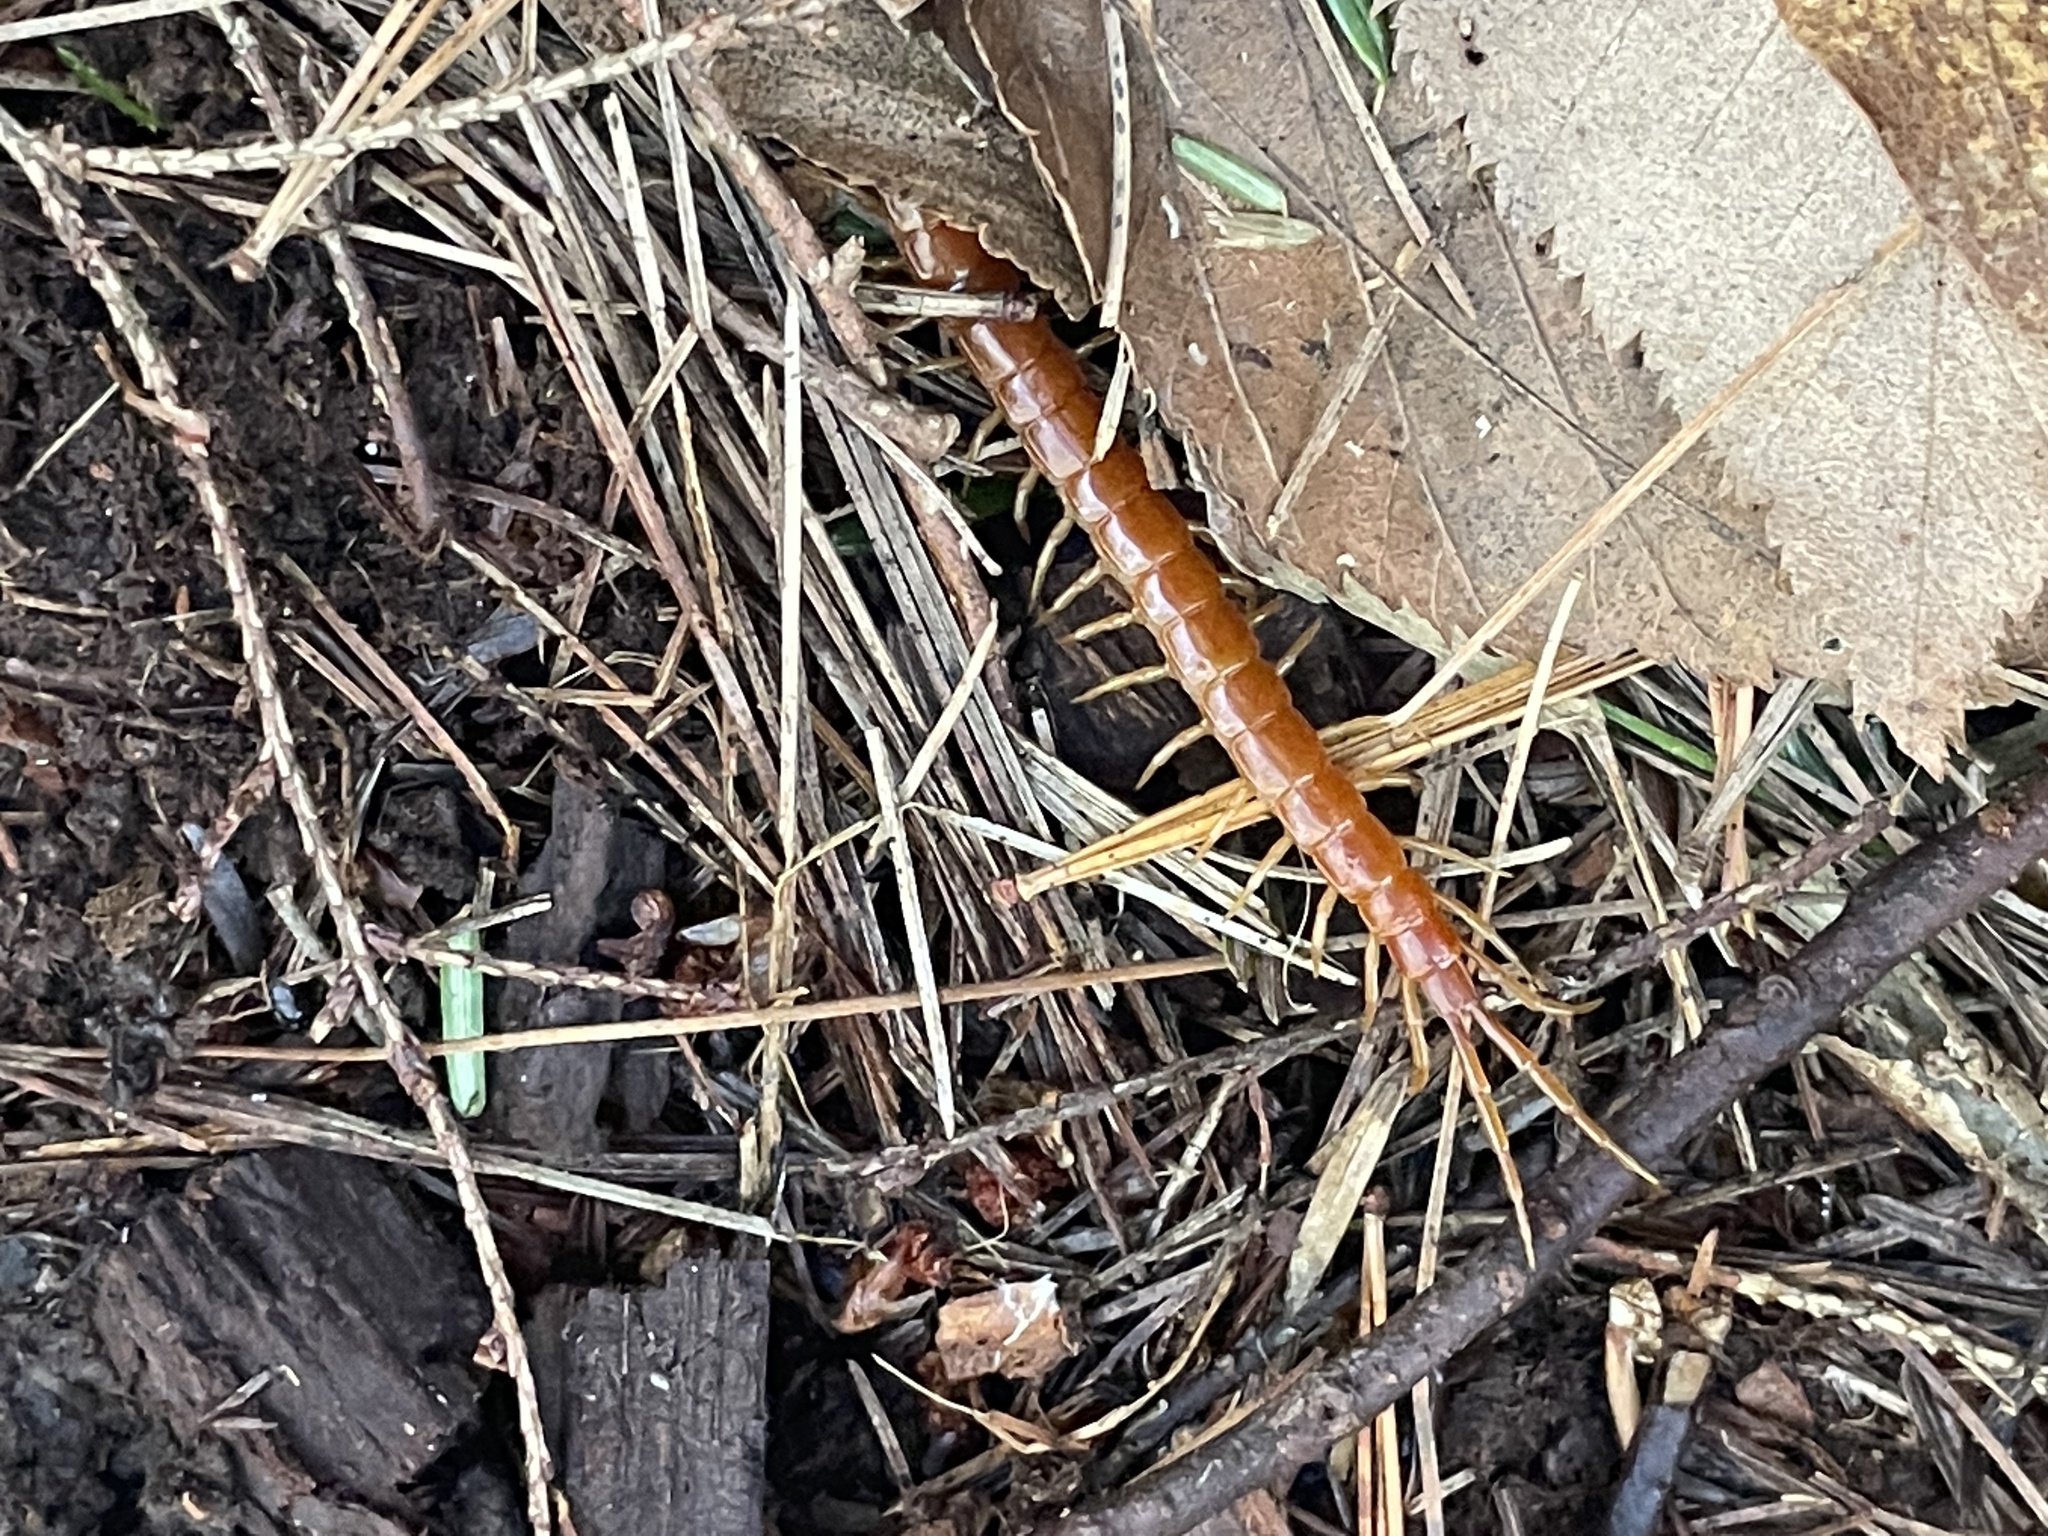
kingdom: Animalia
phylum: Arthropoda
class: Chilopoda
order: Scolopendromorpha
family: Scolopocryptopidae
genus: Scolopocryptops
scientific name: Scolopocryptops sexspinosus
